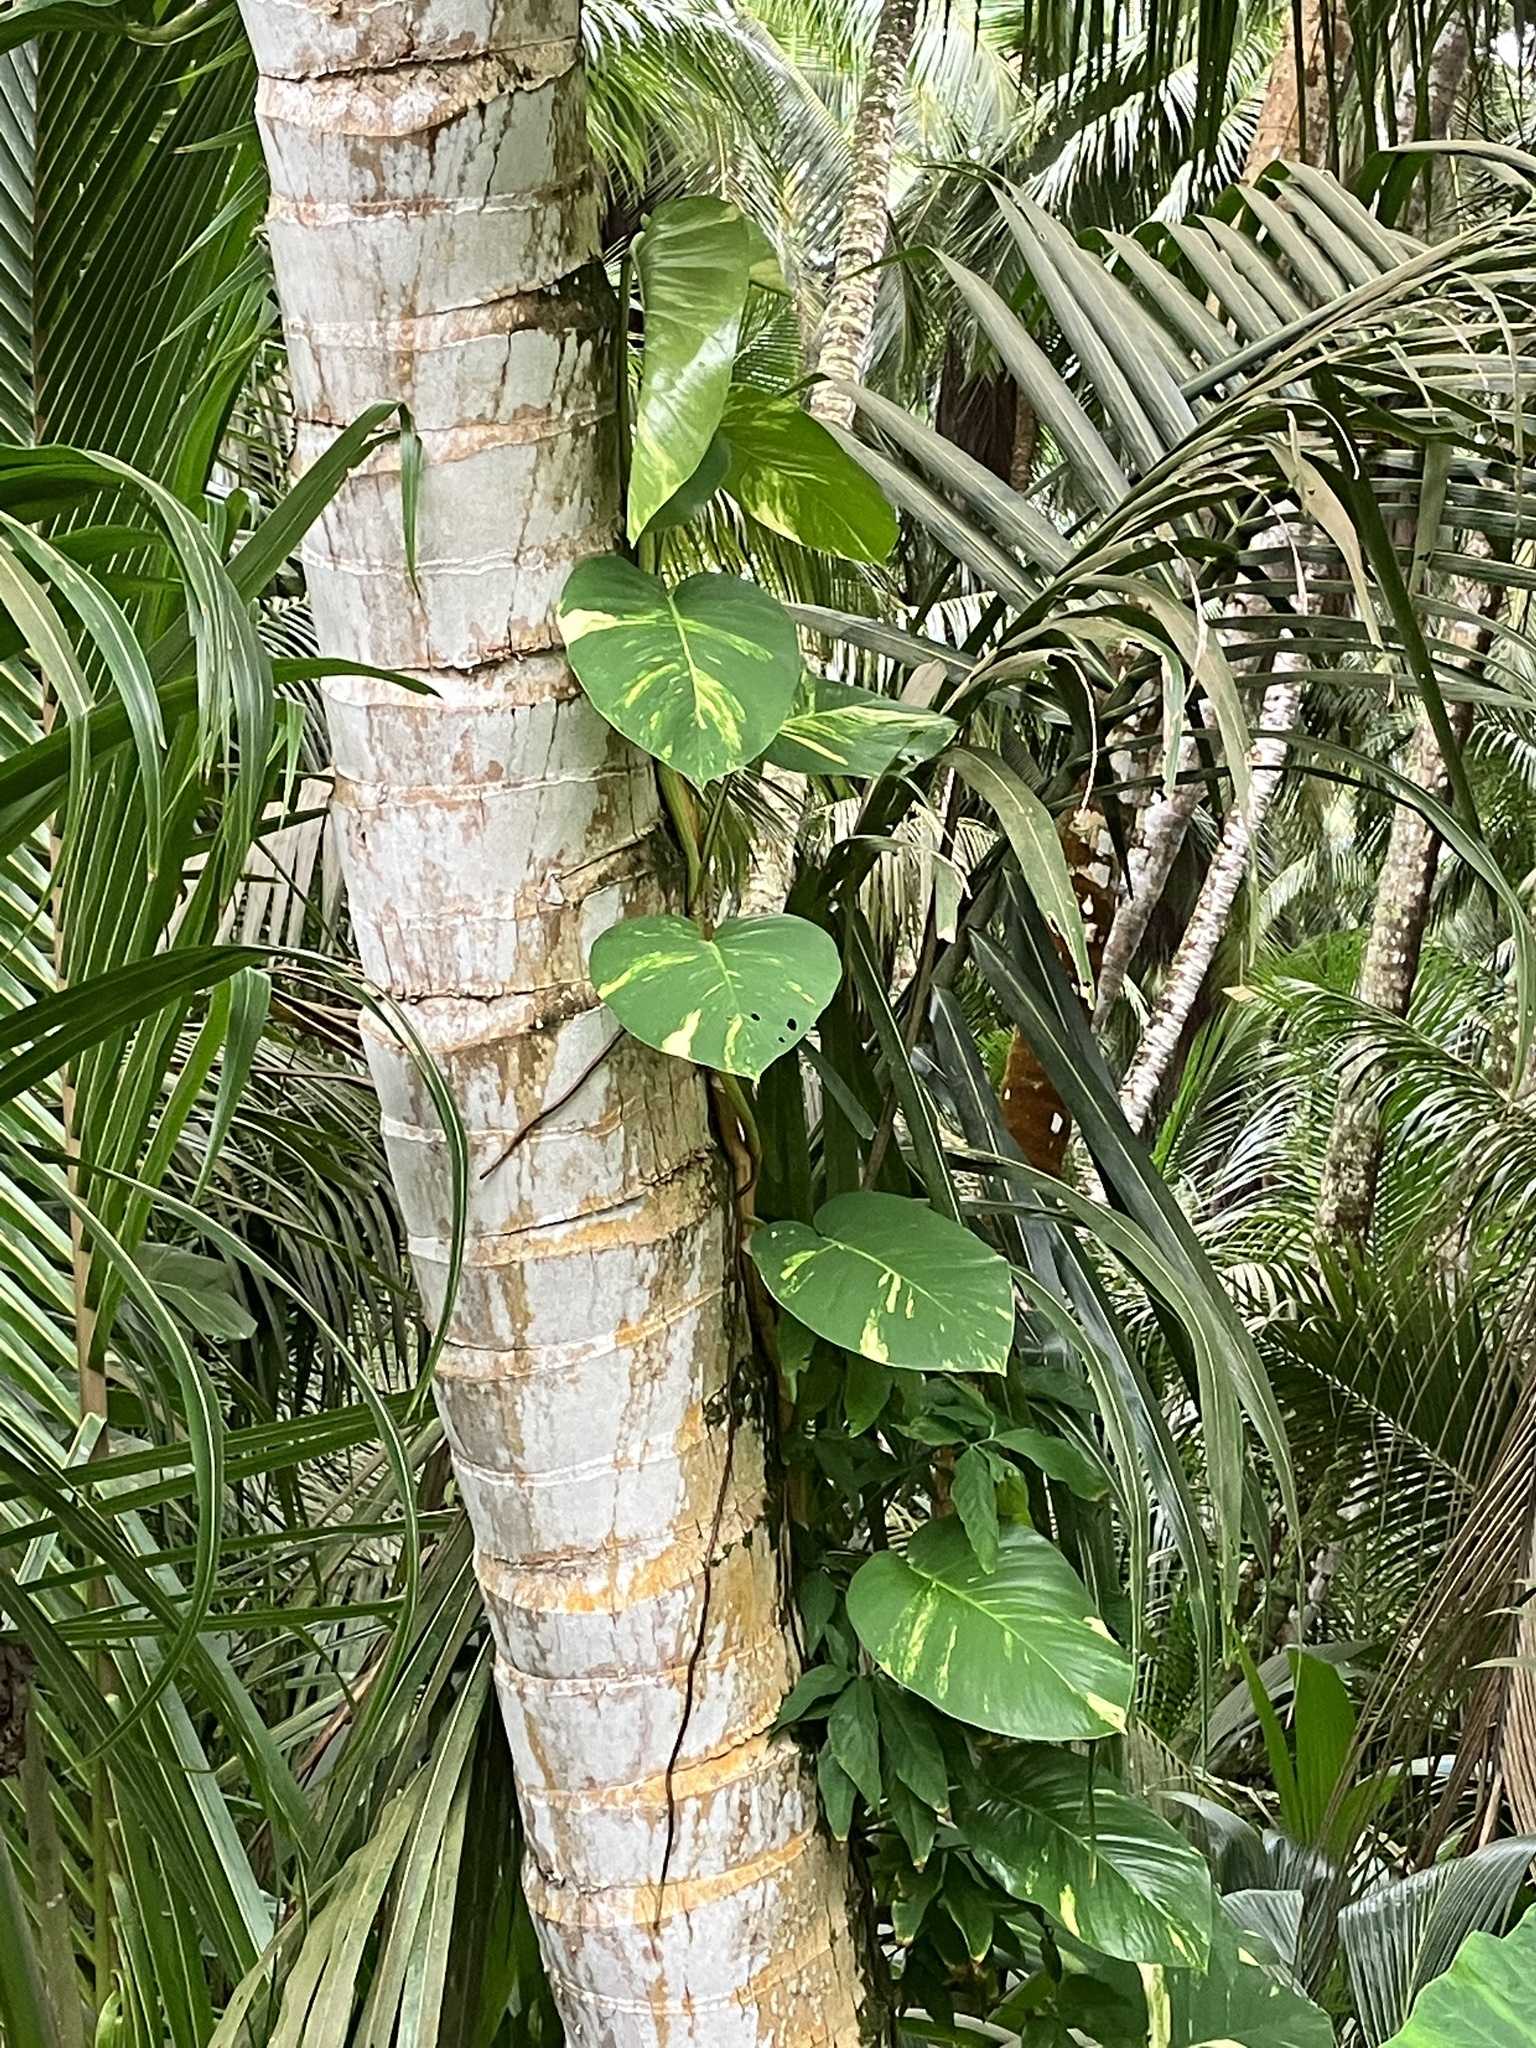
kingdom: Plantae
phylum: Tracheophyta
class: Liliopsida
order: Alismatales
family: Araceae
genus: Epipremnum
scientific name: Epipremnum aureum
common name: Golden hunter's-robe
